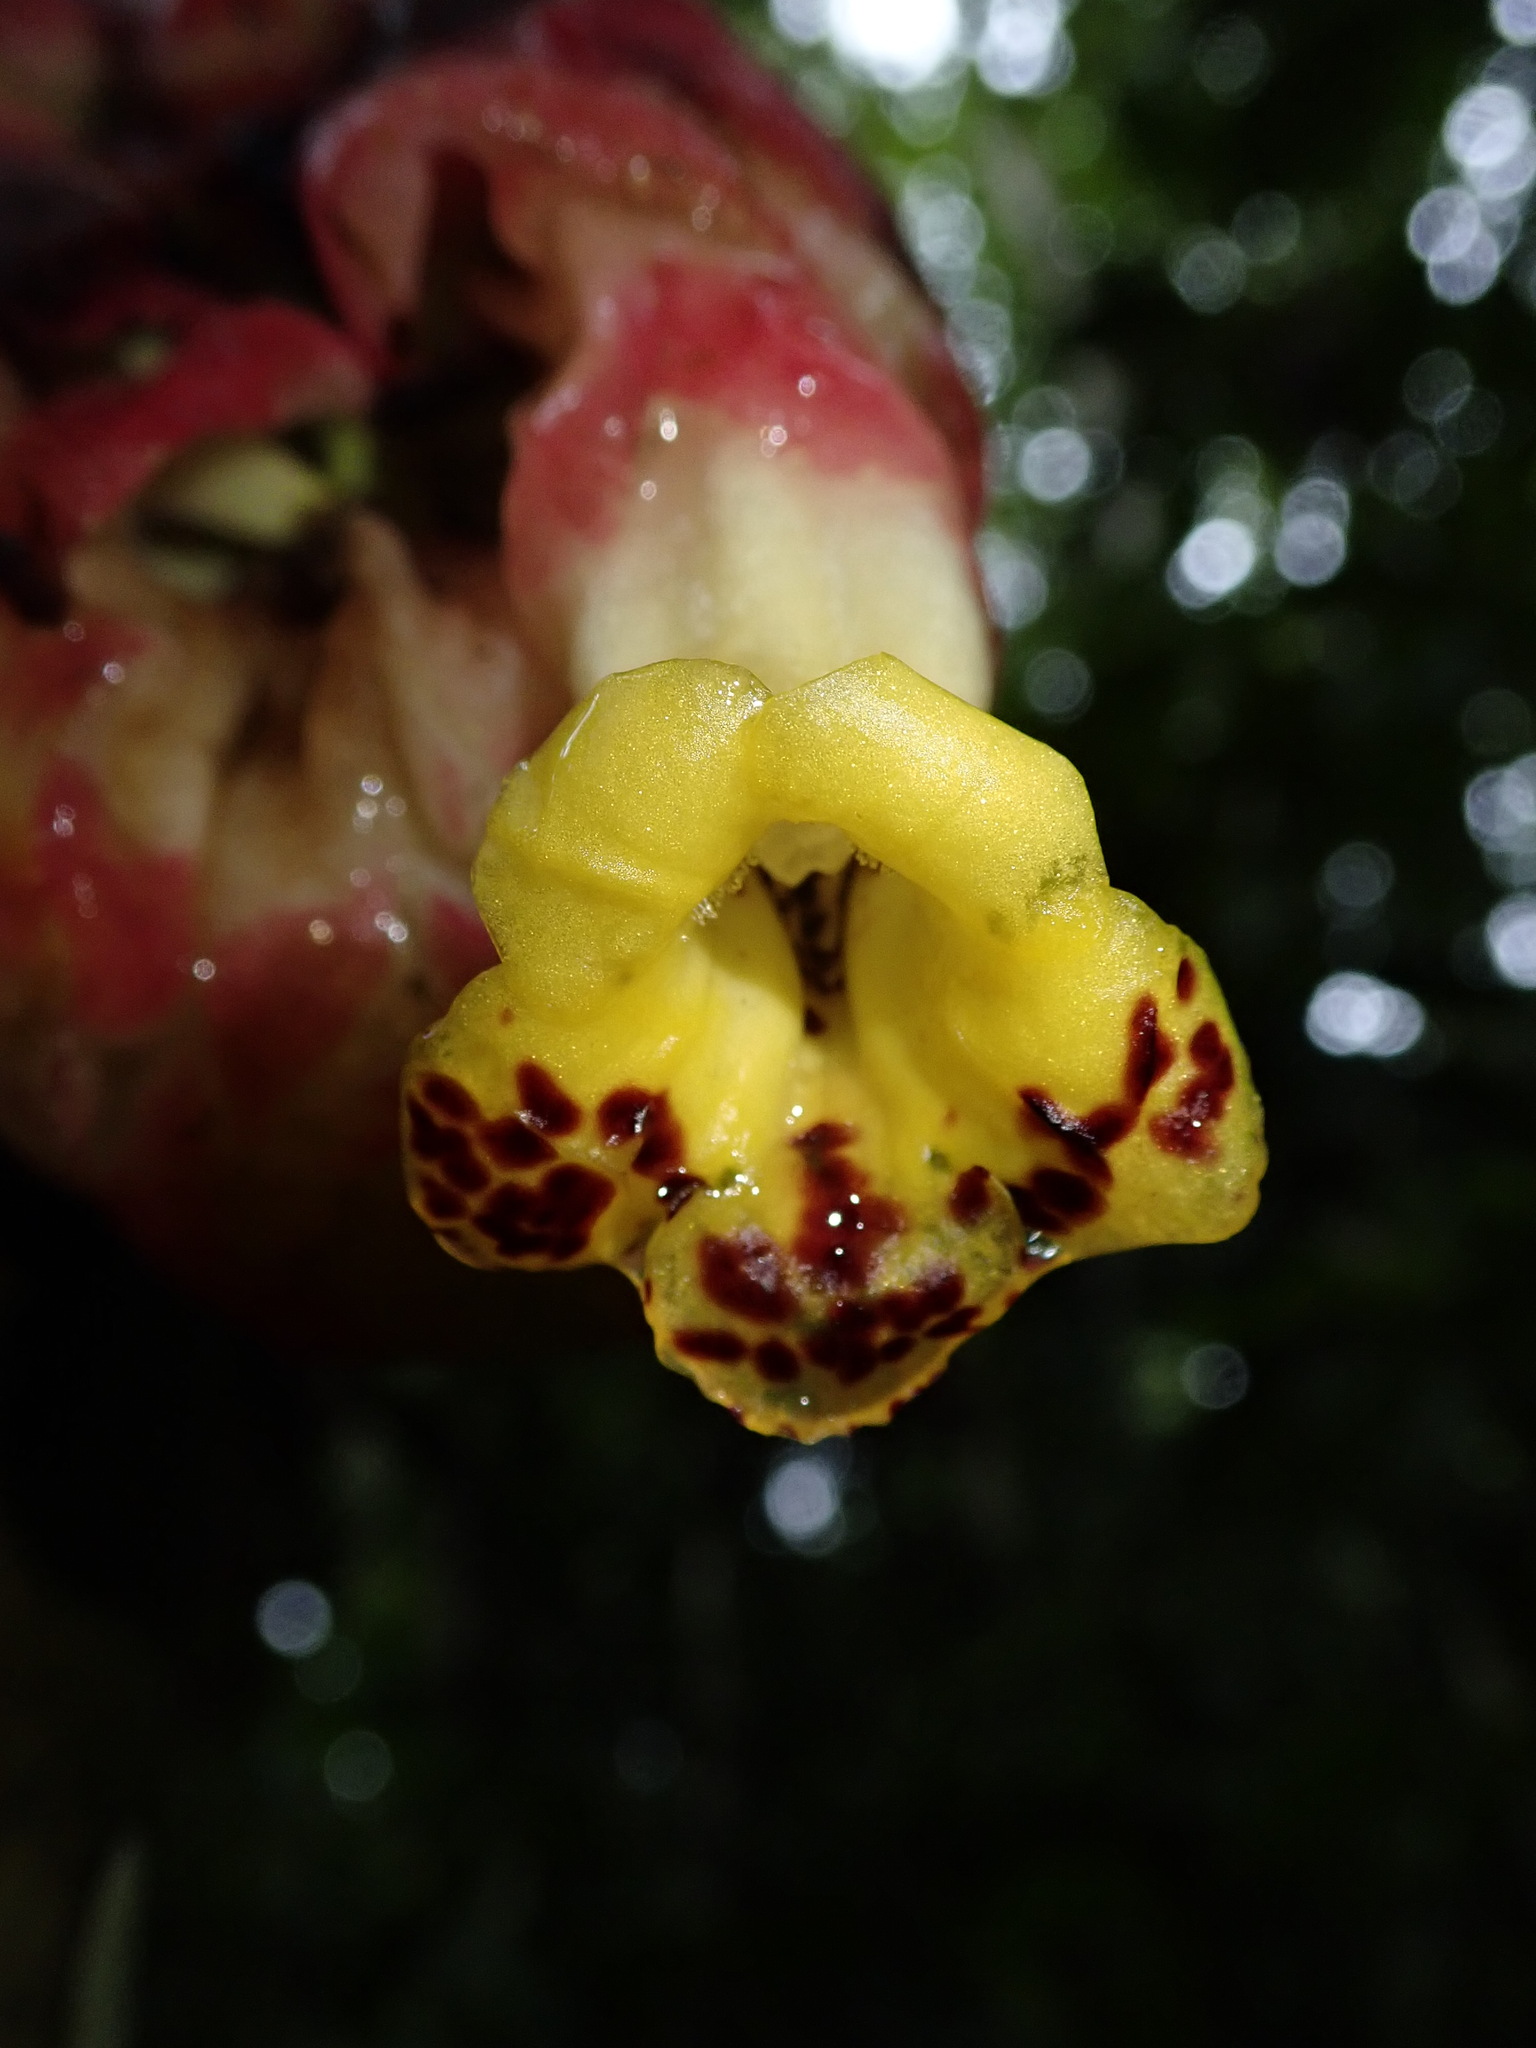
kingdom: Plantae
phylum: Tracheophyta
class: Magnoliopsida
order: Lamiales
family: Gesneriaceae
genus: Drymonia
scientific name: Drymonia coccinea
